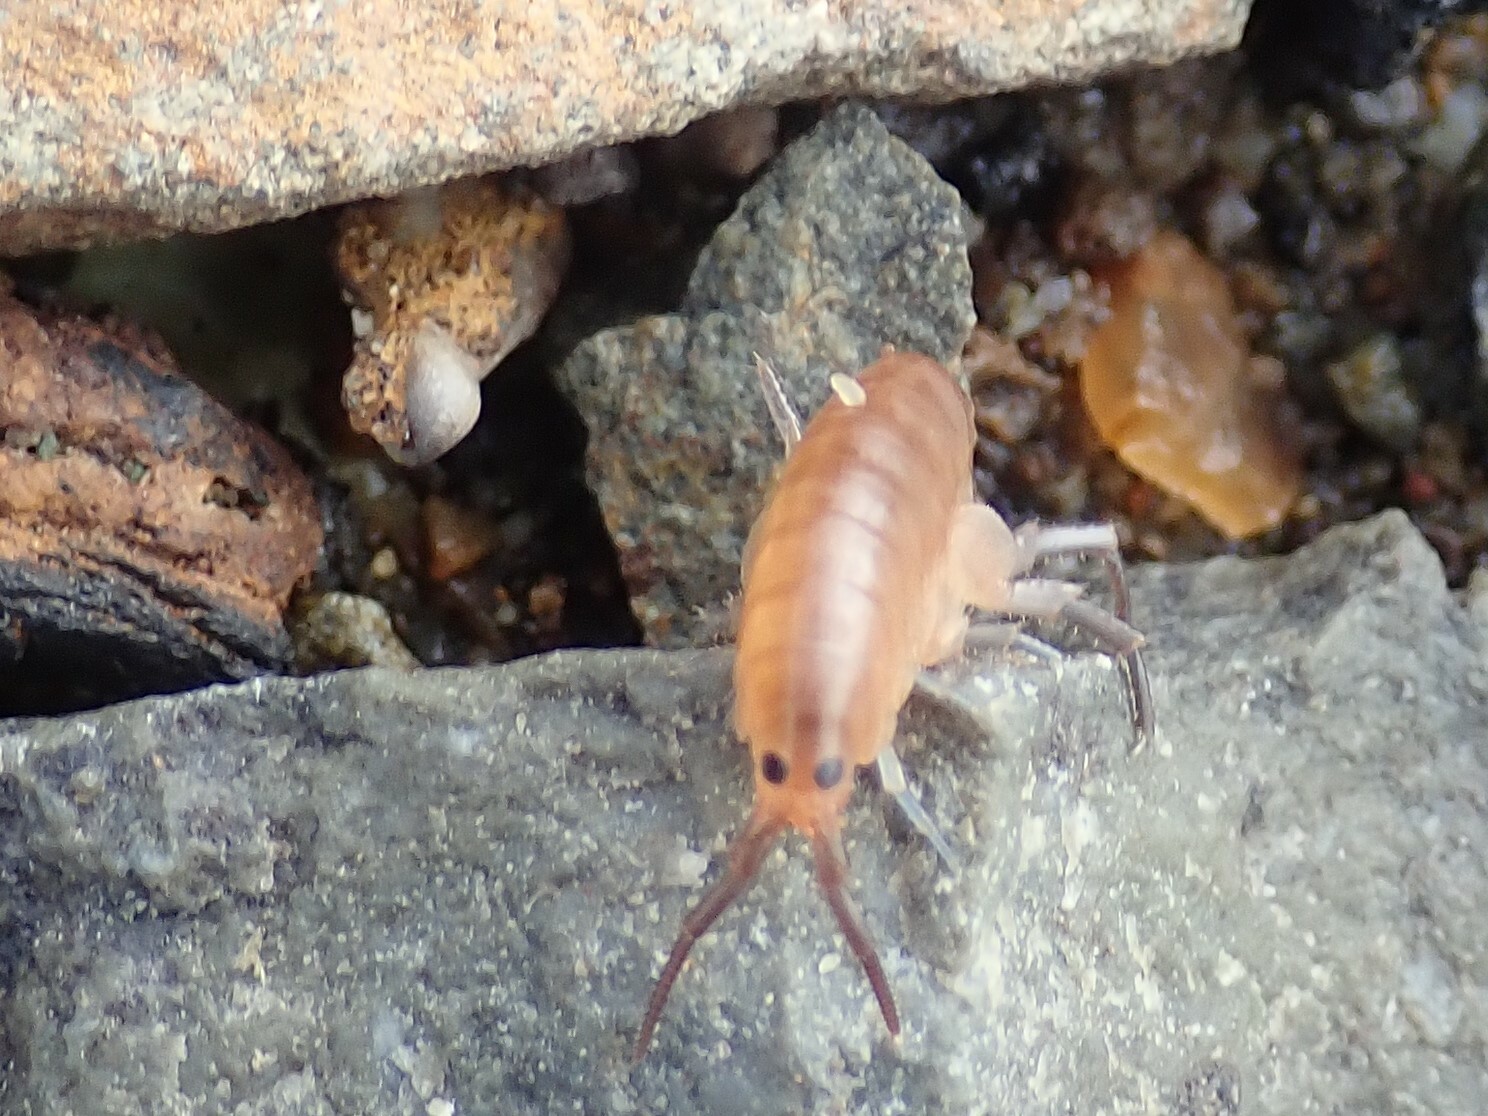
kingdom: Animalia
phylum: Arthropoda
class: Malacostraca
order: Amphipoda
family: Talitridae
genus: Traskorchestia
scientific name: Traskorchestia traskiana
